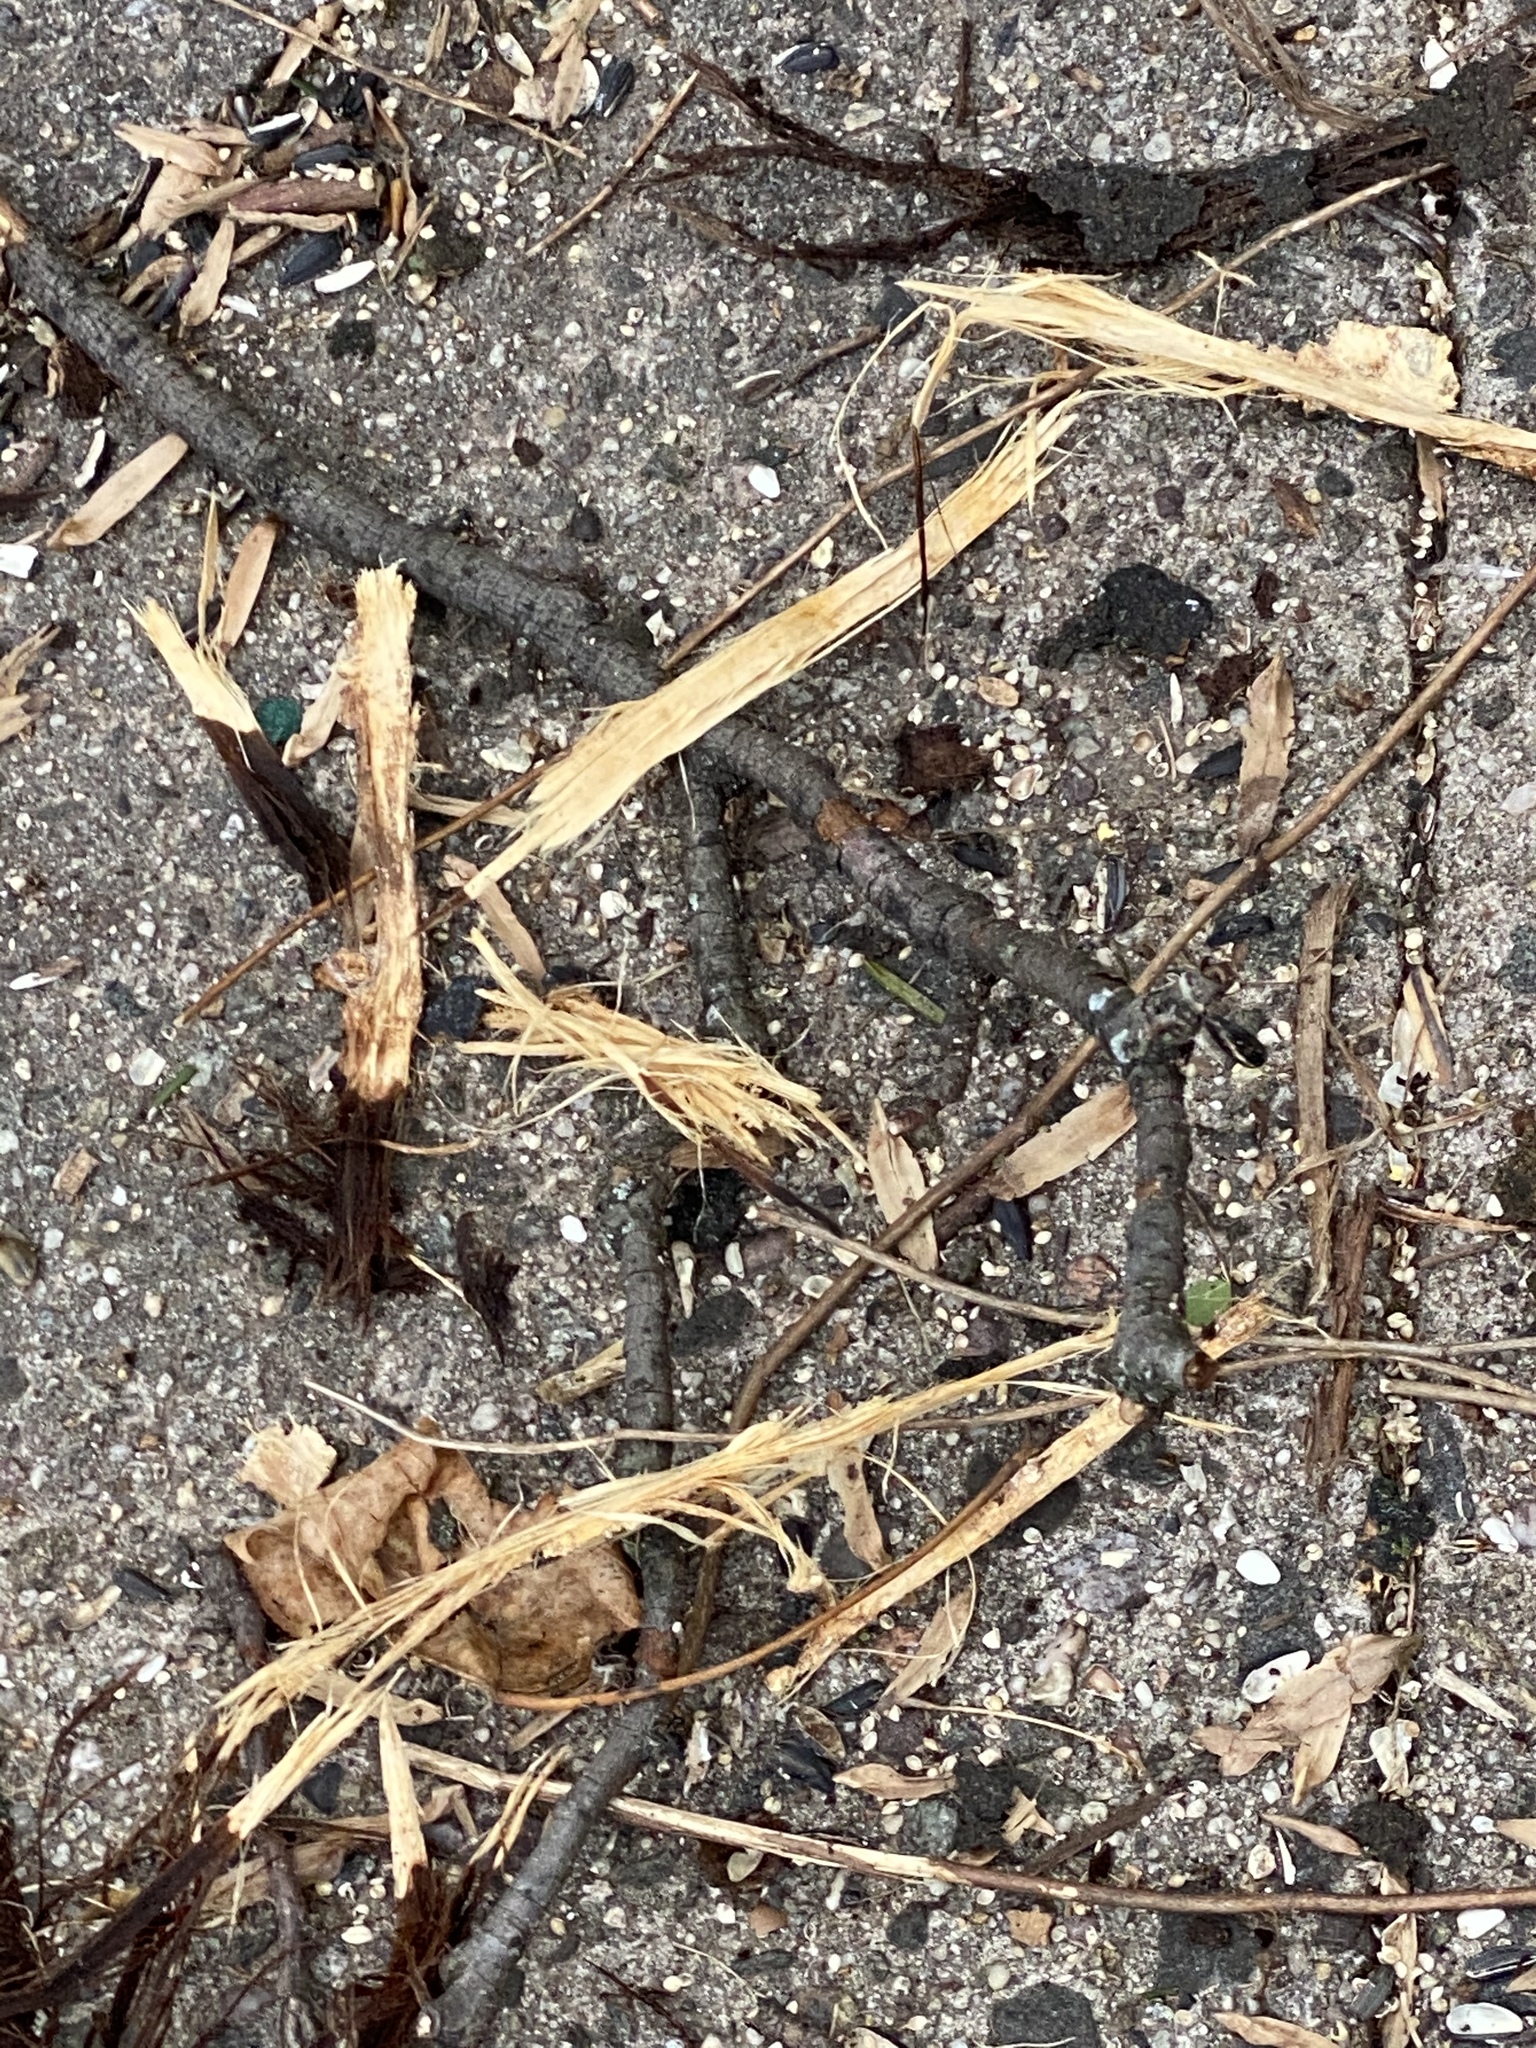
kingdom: Animalia
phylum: Chordata
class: Mammalia
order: Rodentia
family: Sciuridae
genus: Sciurus
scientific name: Sciurus carolinensis
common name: Eastern gray squirrel
